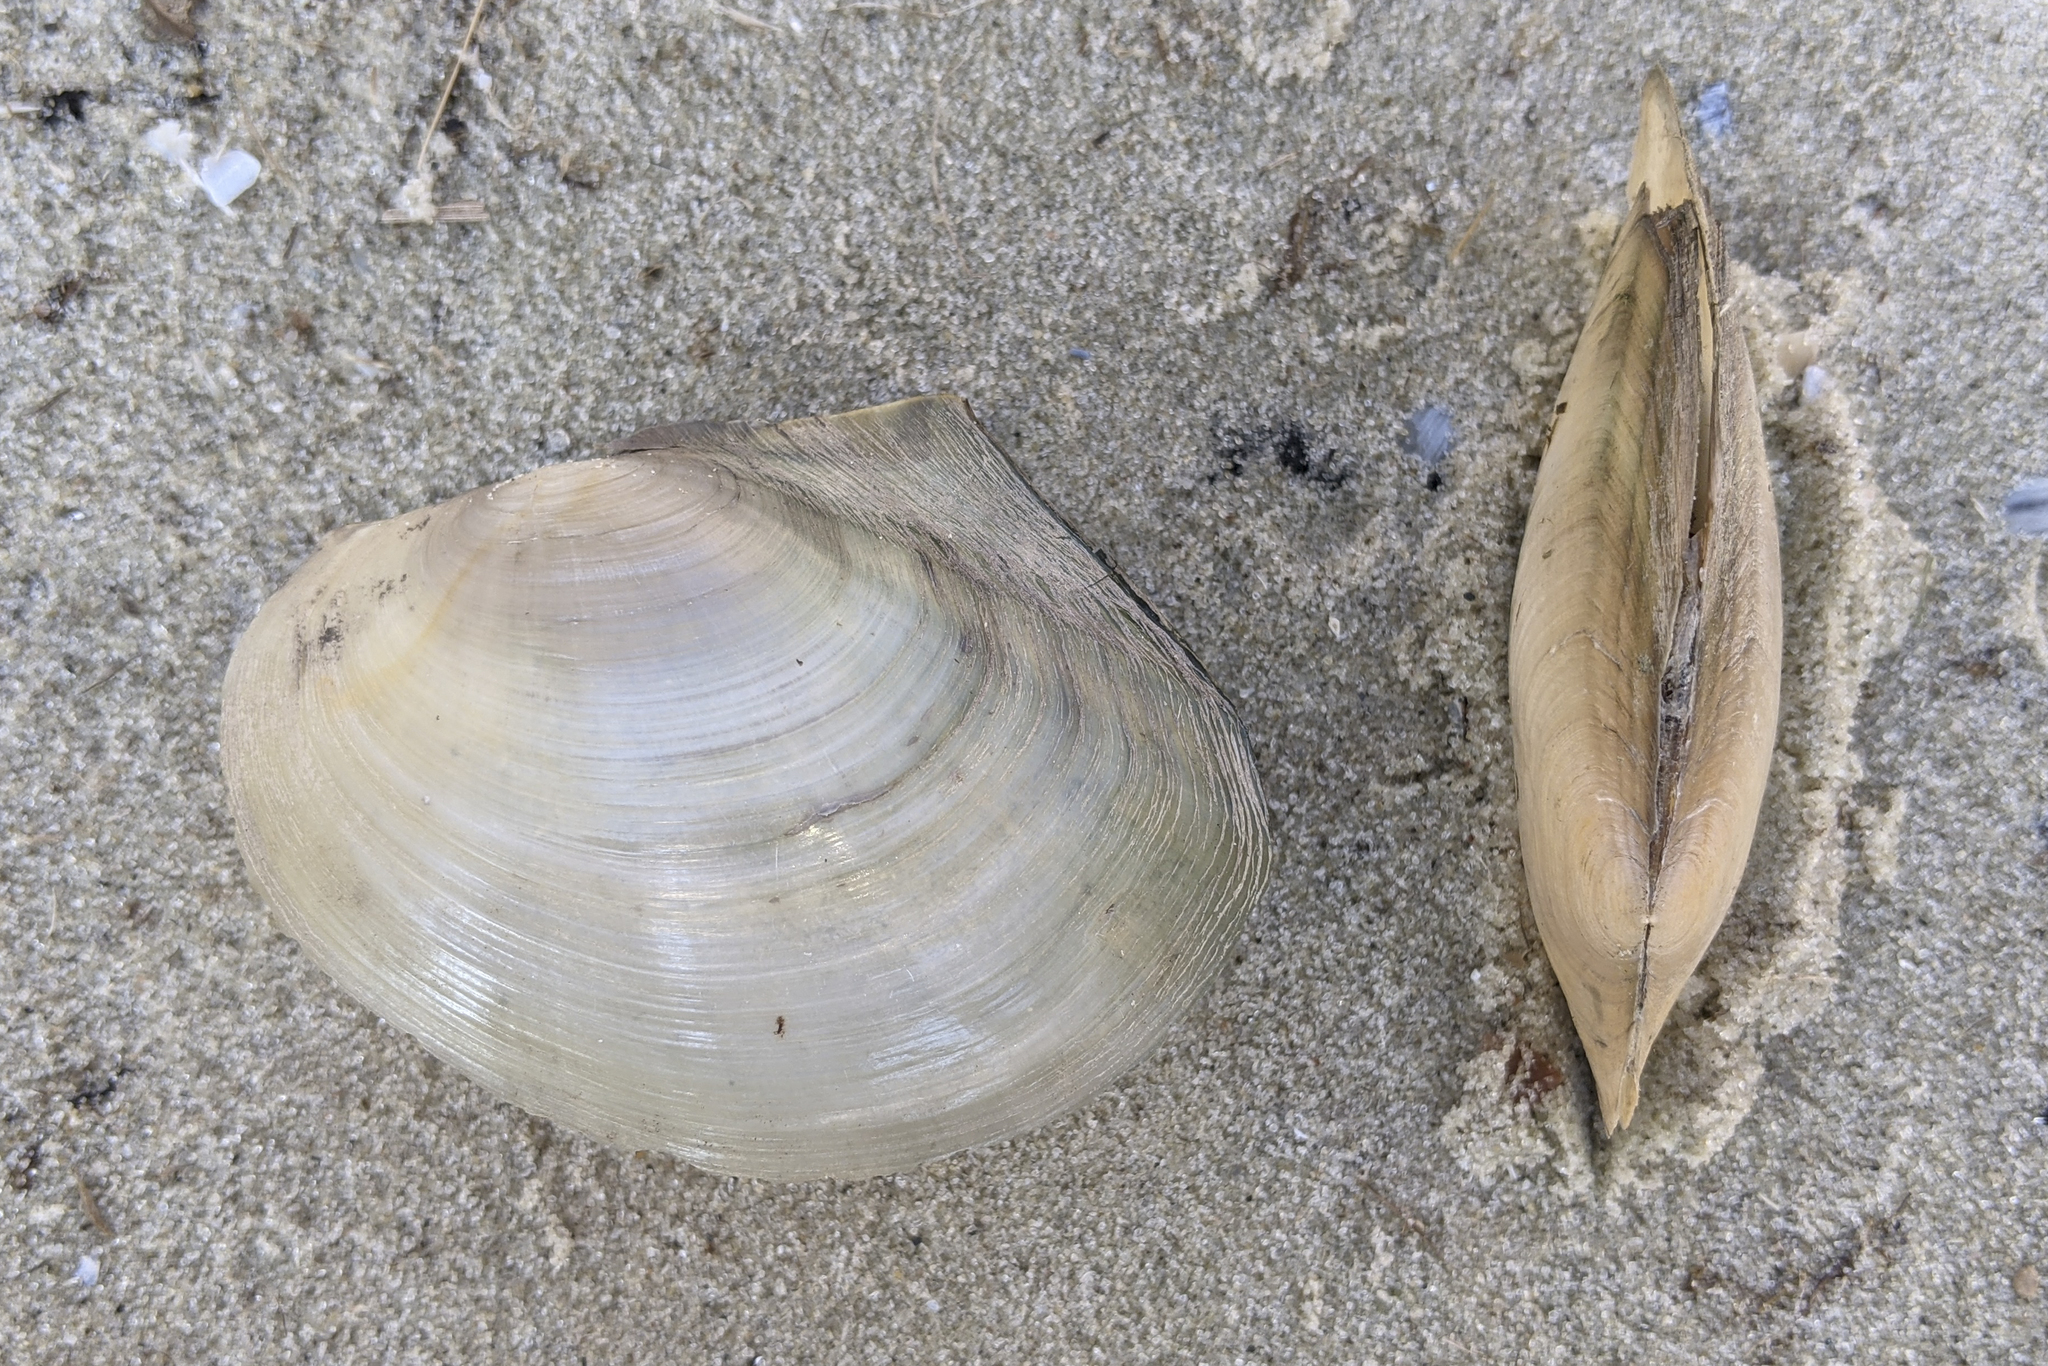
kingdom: Animalia
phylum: Mollusca
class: Bivalvia
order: Unionida
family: Unionidae
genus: Anodonta
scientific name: Anodonta anatina
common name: Duck mussel
